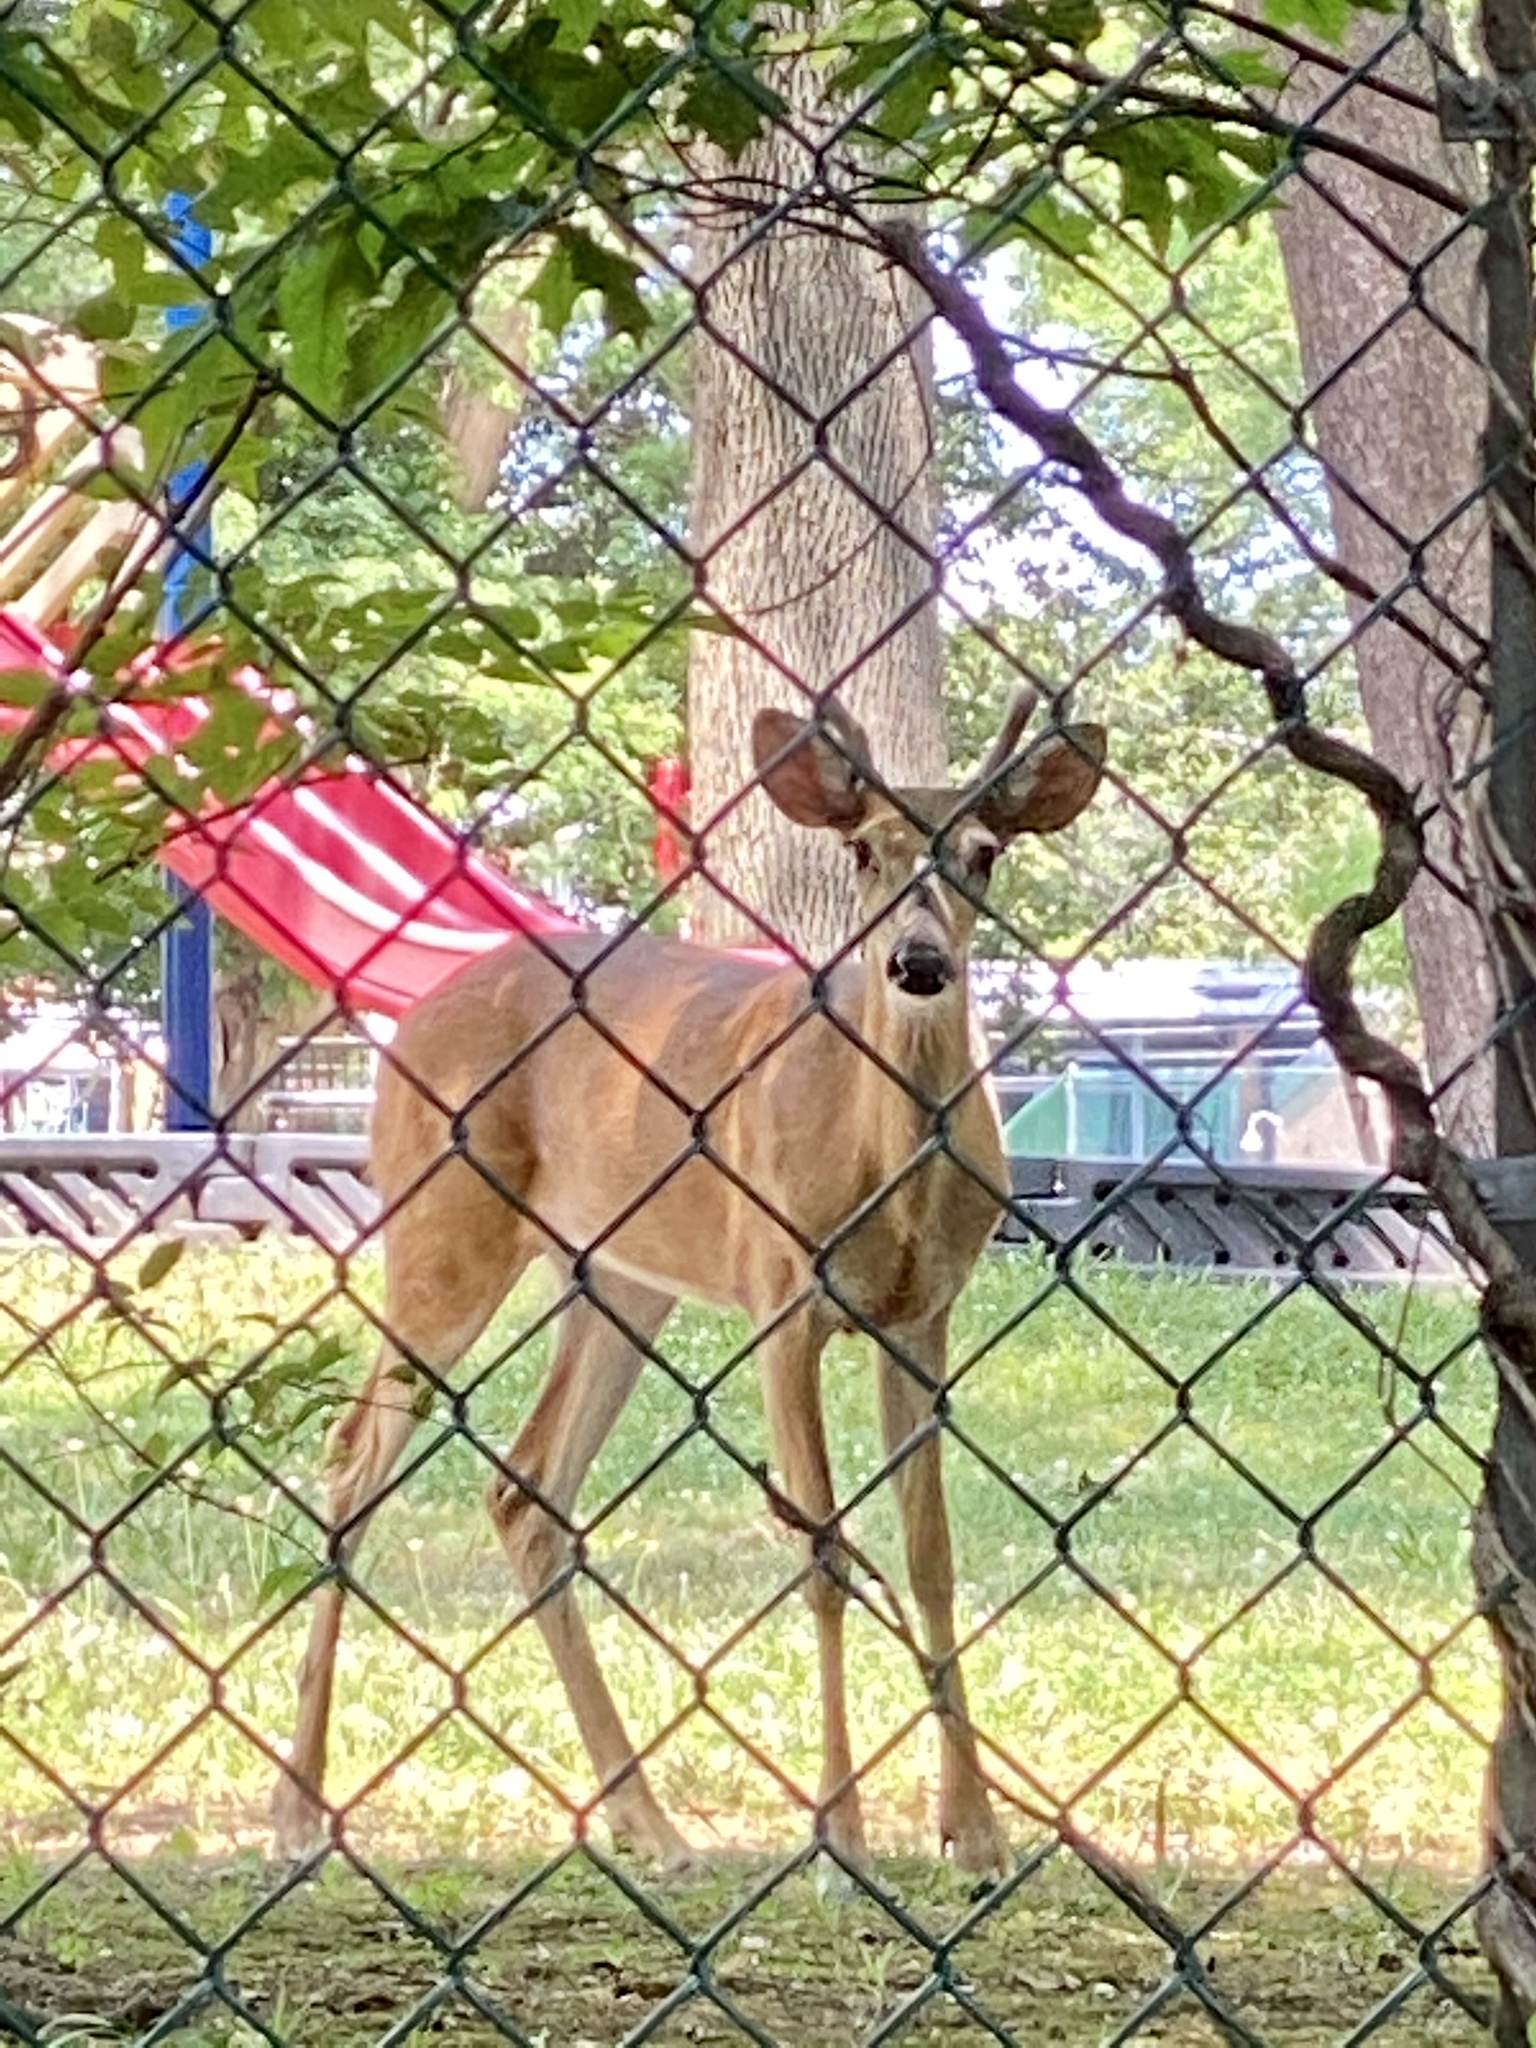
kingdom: Animalia
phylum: Chordata
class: Mammalia
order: Artiodactyla
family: Cervidae
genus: Odocoileus
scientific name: Odocoileus virginianus
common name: White-tailed deer
